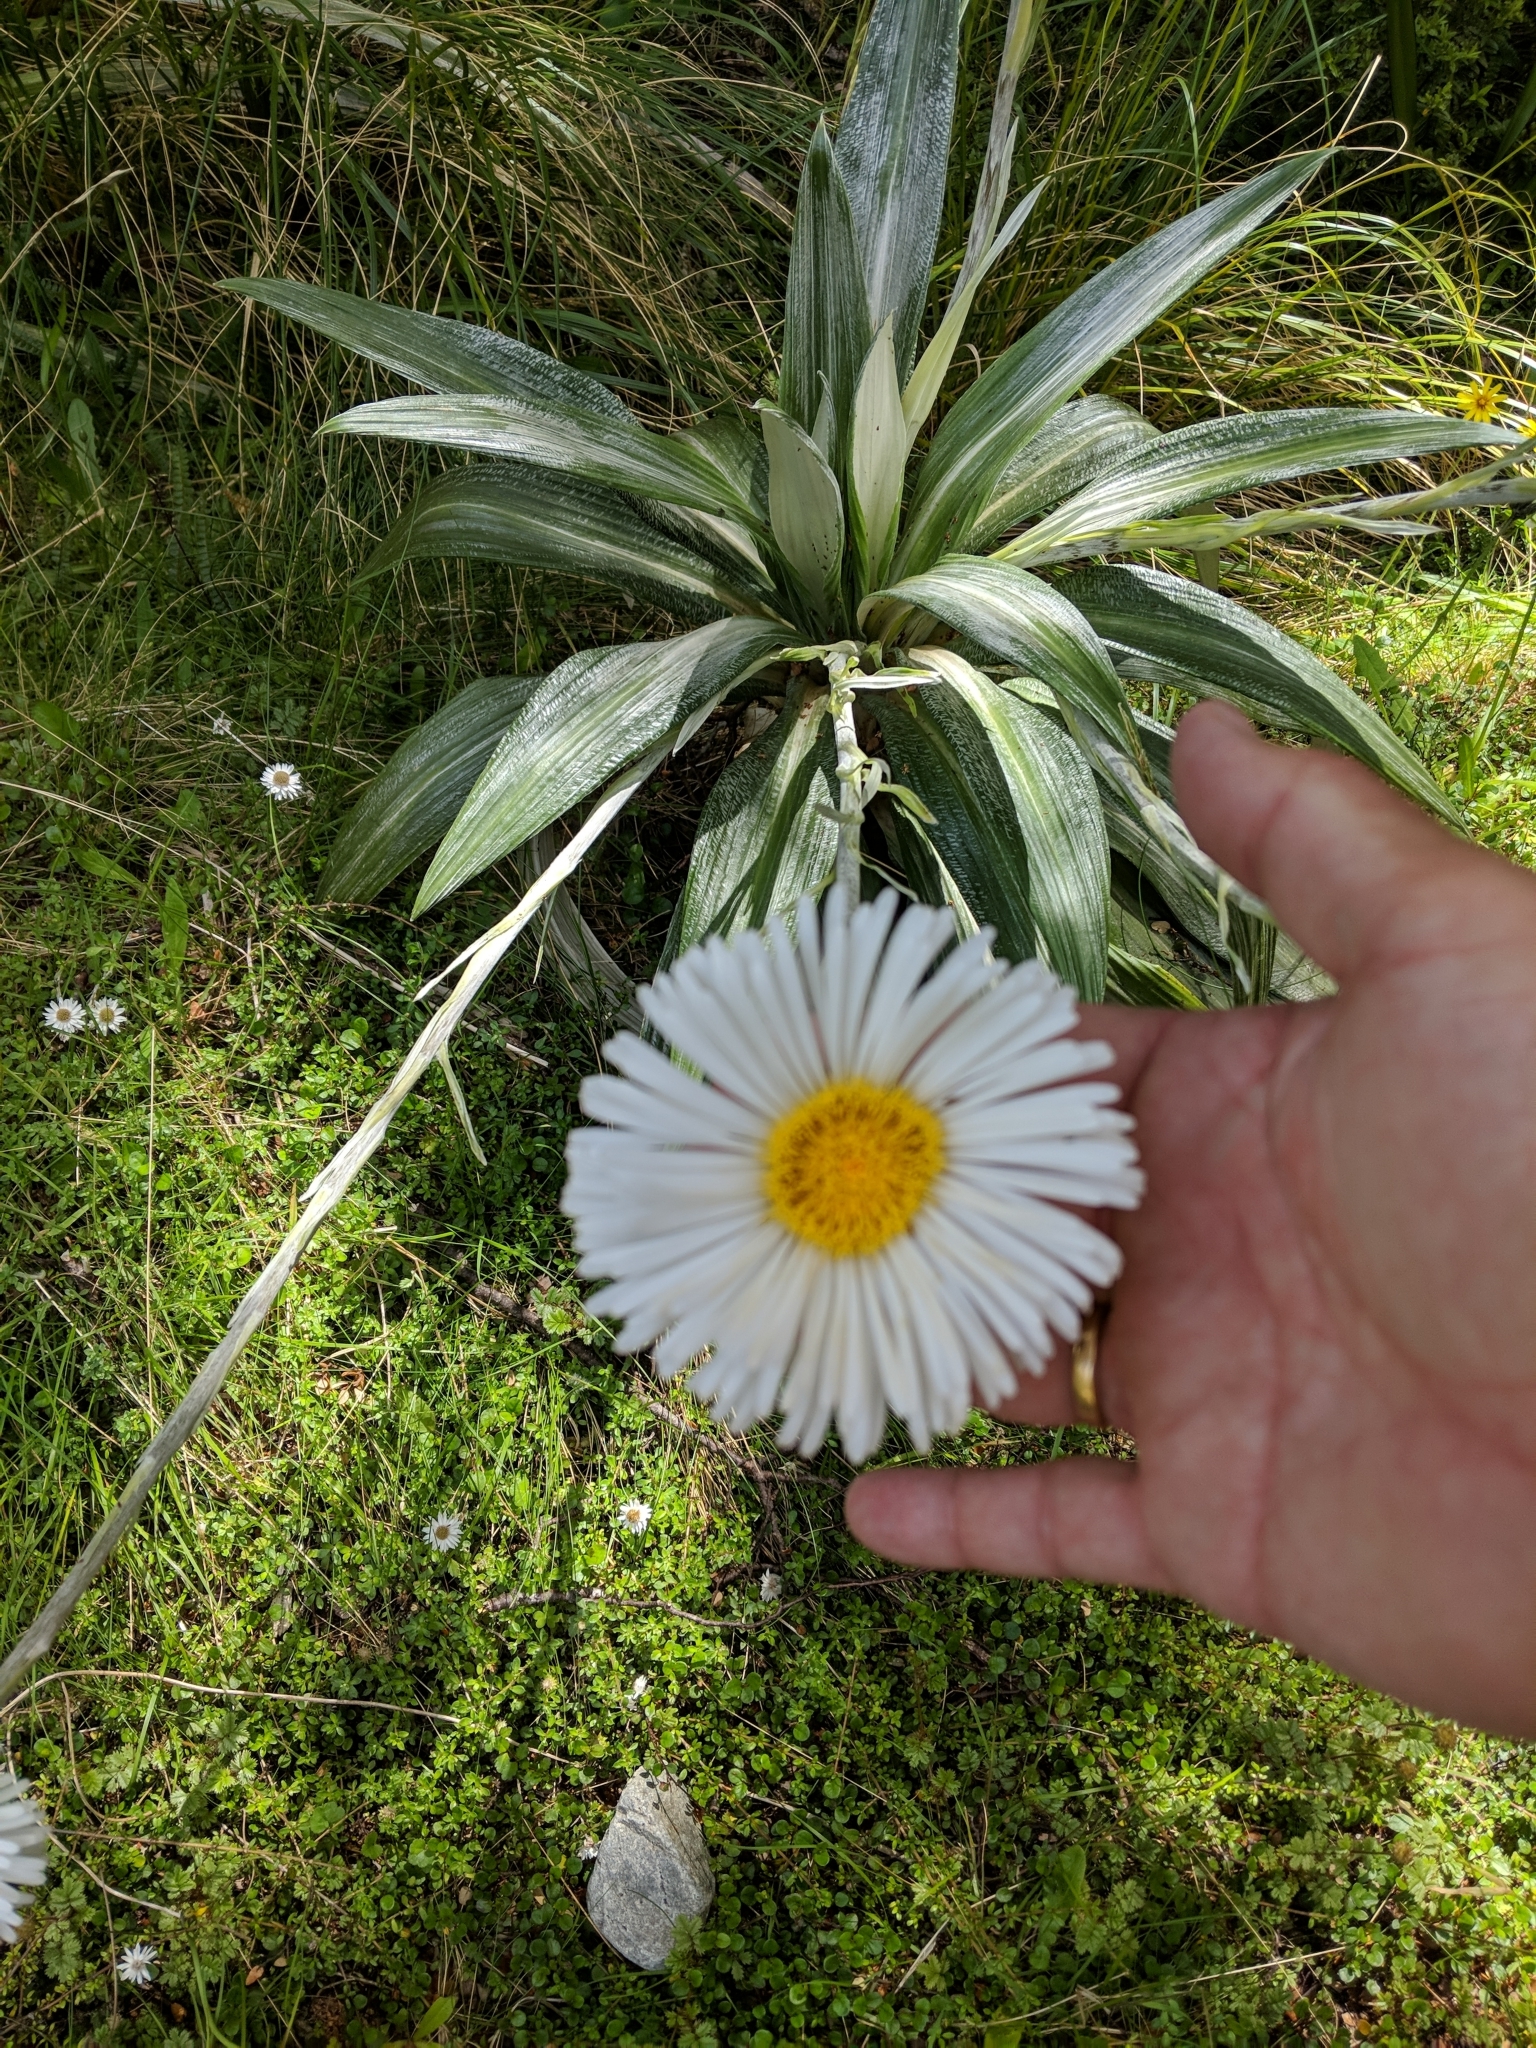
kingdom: Plantae
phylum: Tracheophyta
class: Magnoliopsida
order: Asterales
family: Asteraceae
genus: Celmisia
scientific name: Celmisia semicordata
